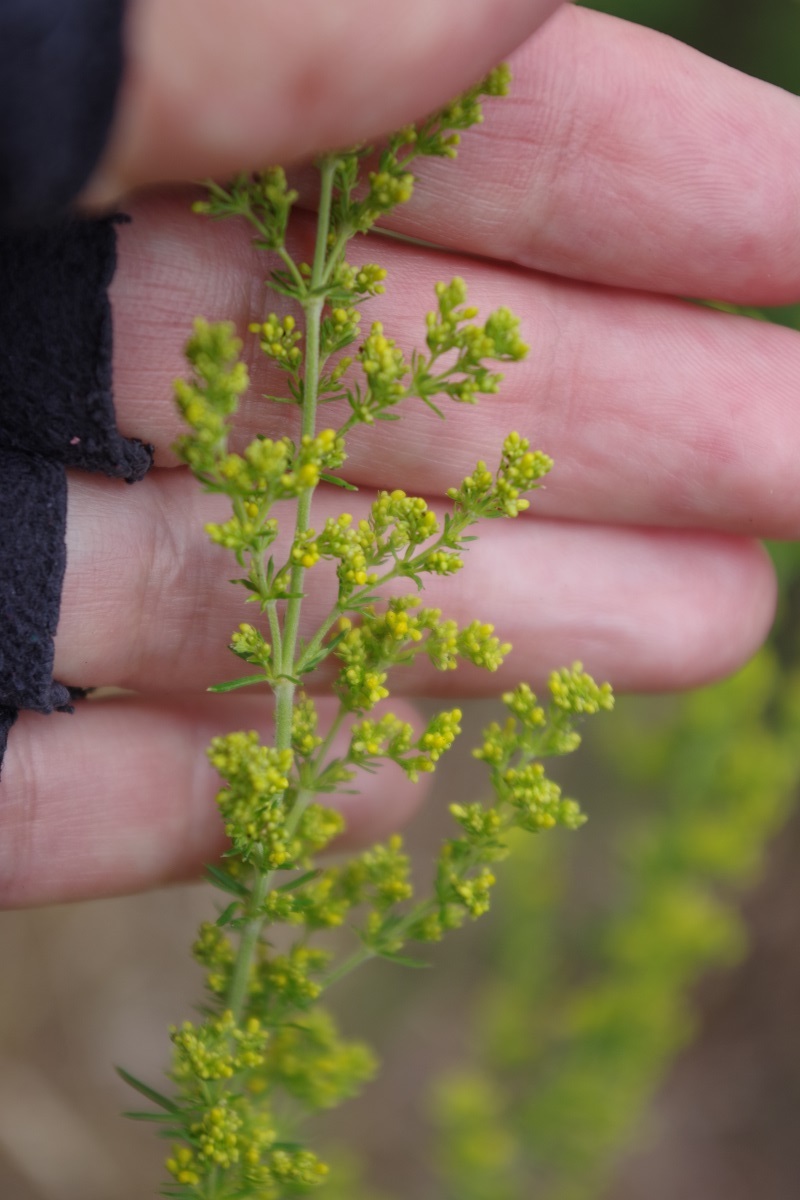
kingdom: Plantae
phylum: Tracheophyta
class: Magnoliopsida
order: Gentianales
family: Rubiaceae
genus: Galium
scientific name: Galium verum
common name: Lady's bedstraw
